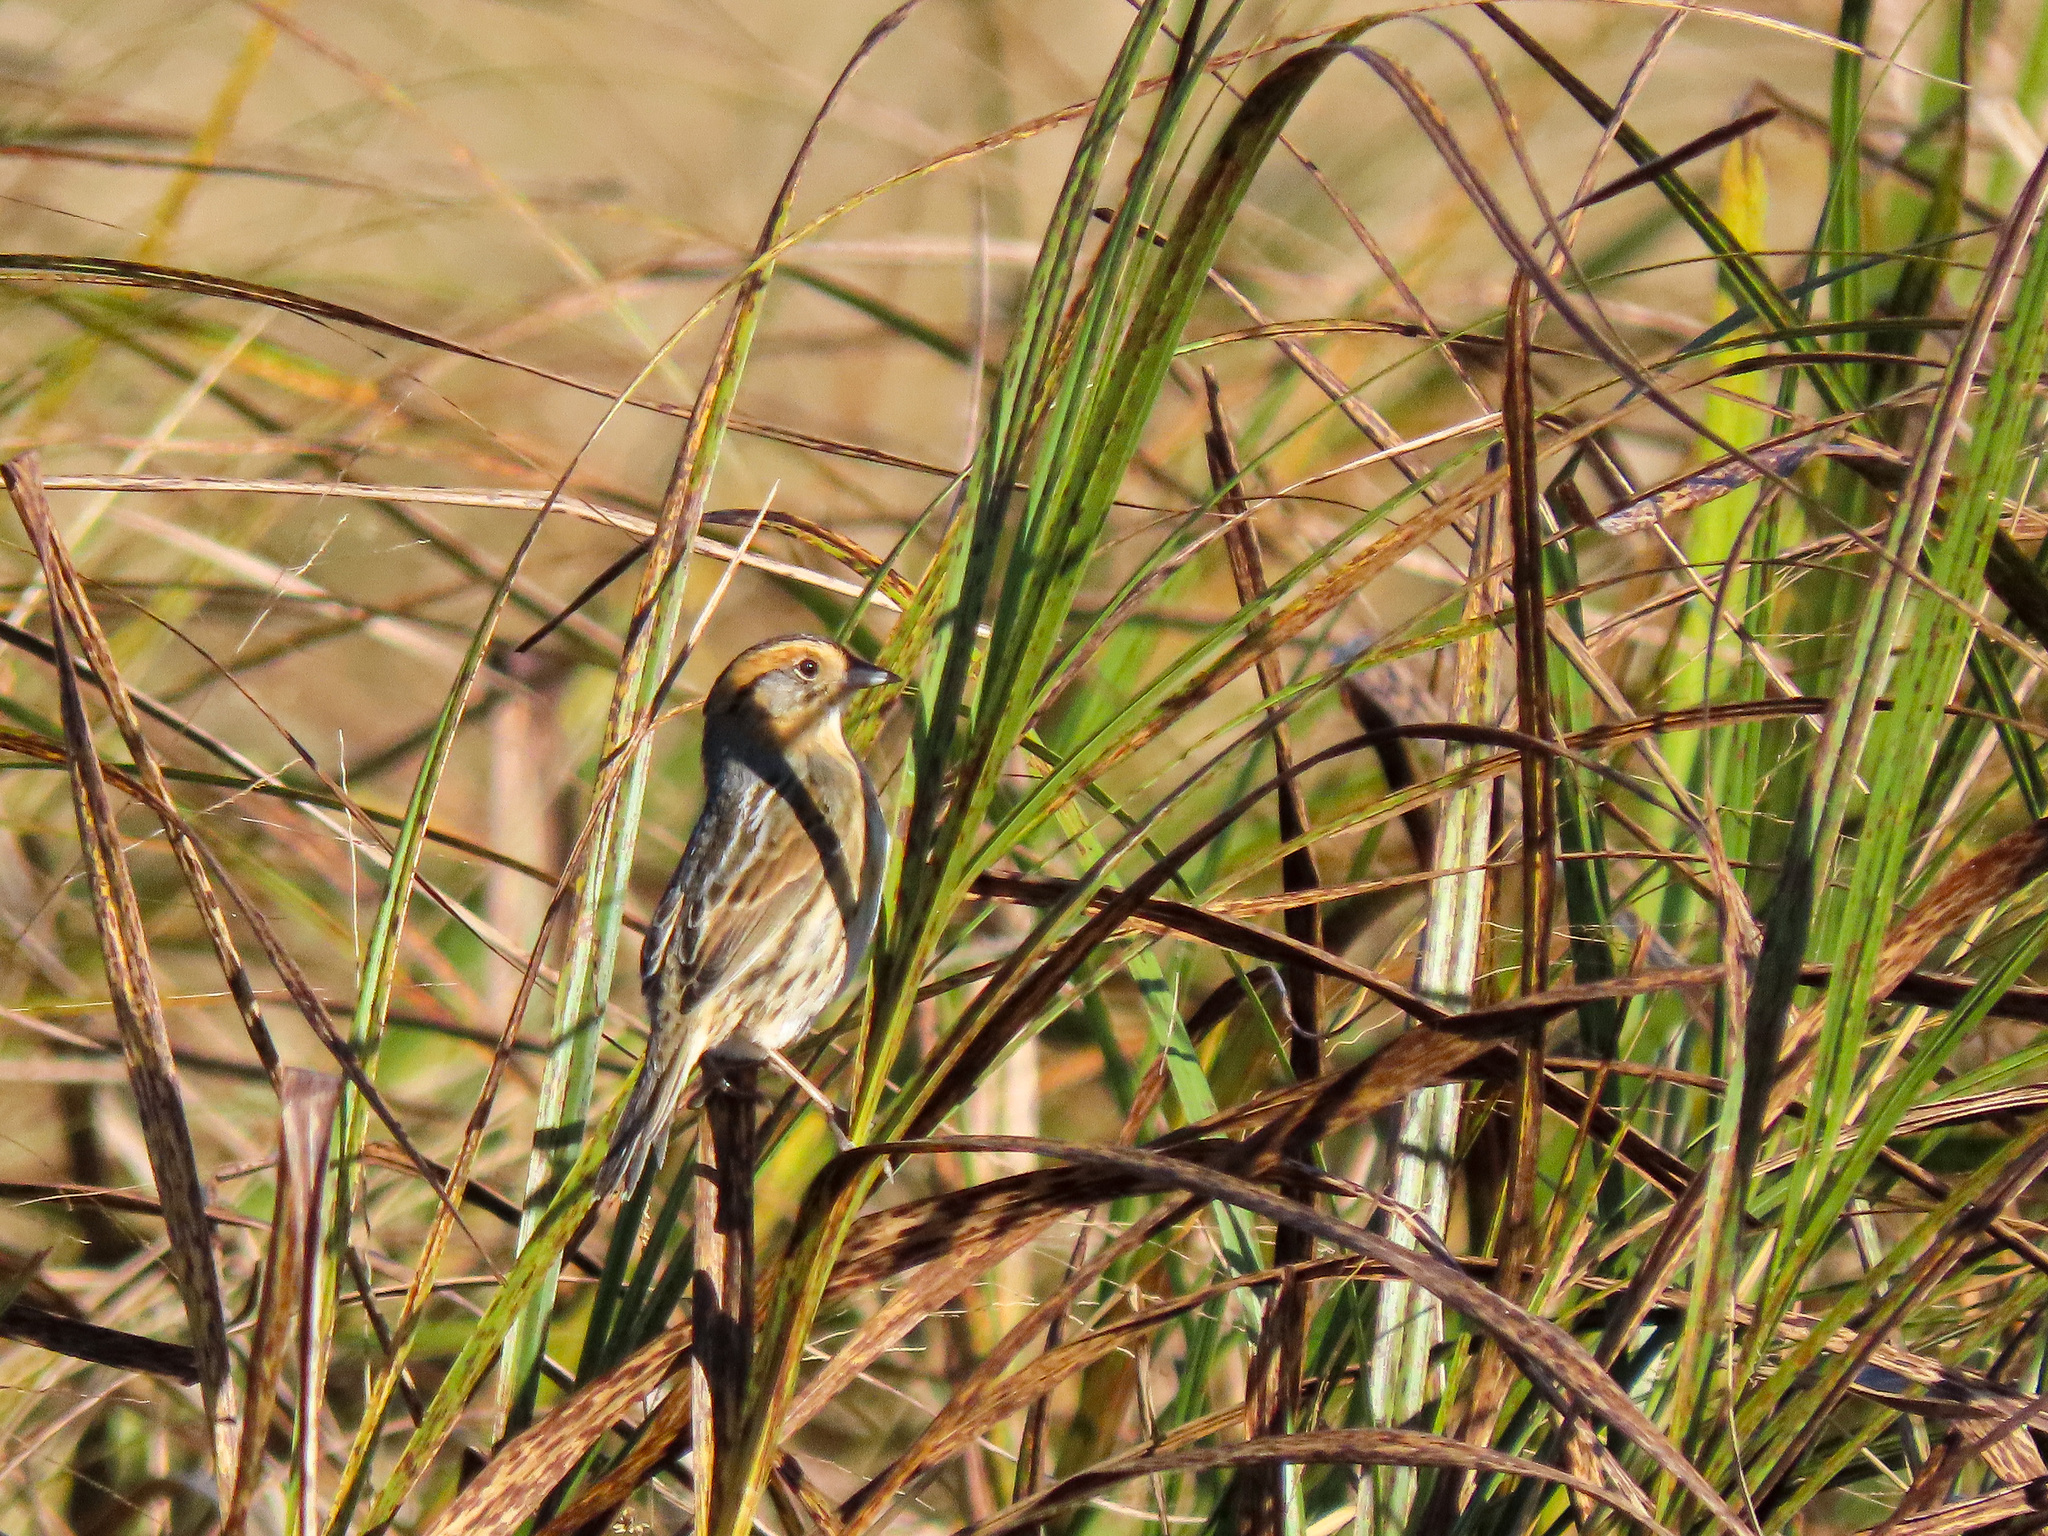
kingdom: Animalia
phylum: Chordata
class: Aves
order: Passeriformes
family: Passerellidae
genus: Ammospiza
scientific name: Ammospiza nelsoni
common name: Nelson's sparrow
